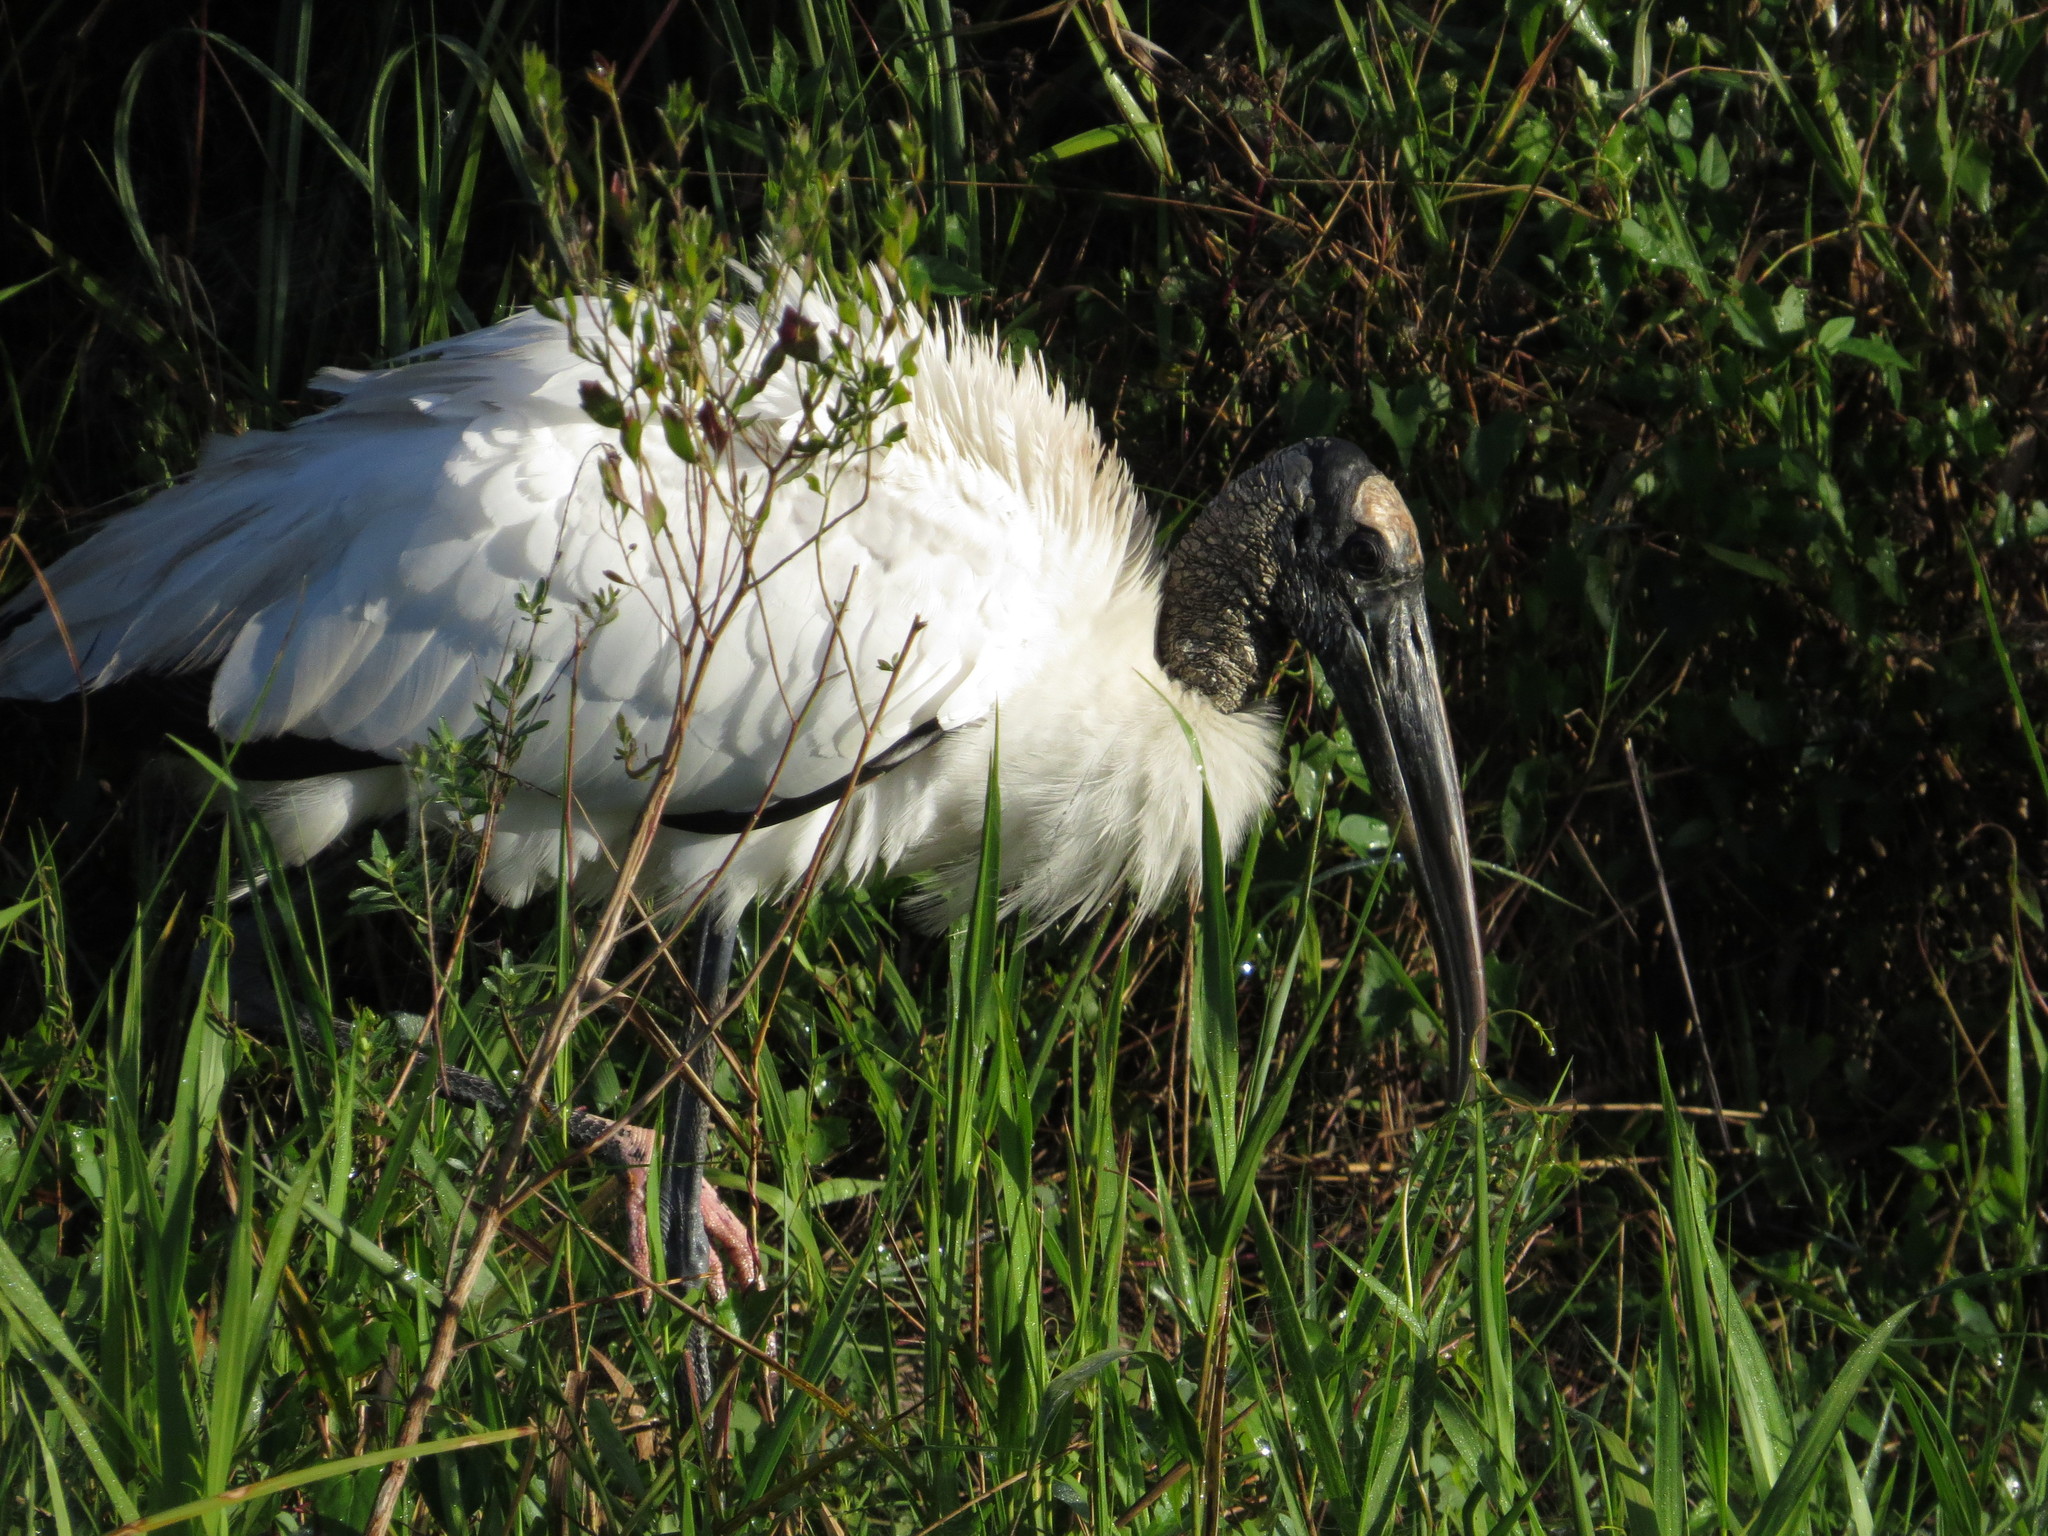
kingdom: Animalia
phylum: Chordata
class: Aves
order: Ciconiiformes
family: Ciconiidae
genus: Mycteria
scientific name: Mycteria americana
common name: Wood stork
